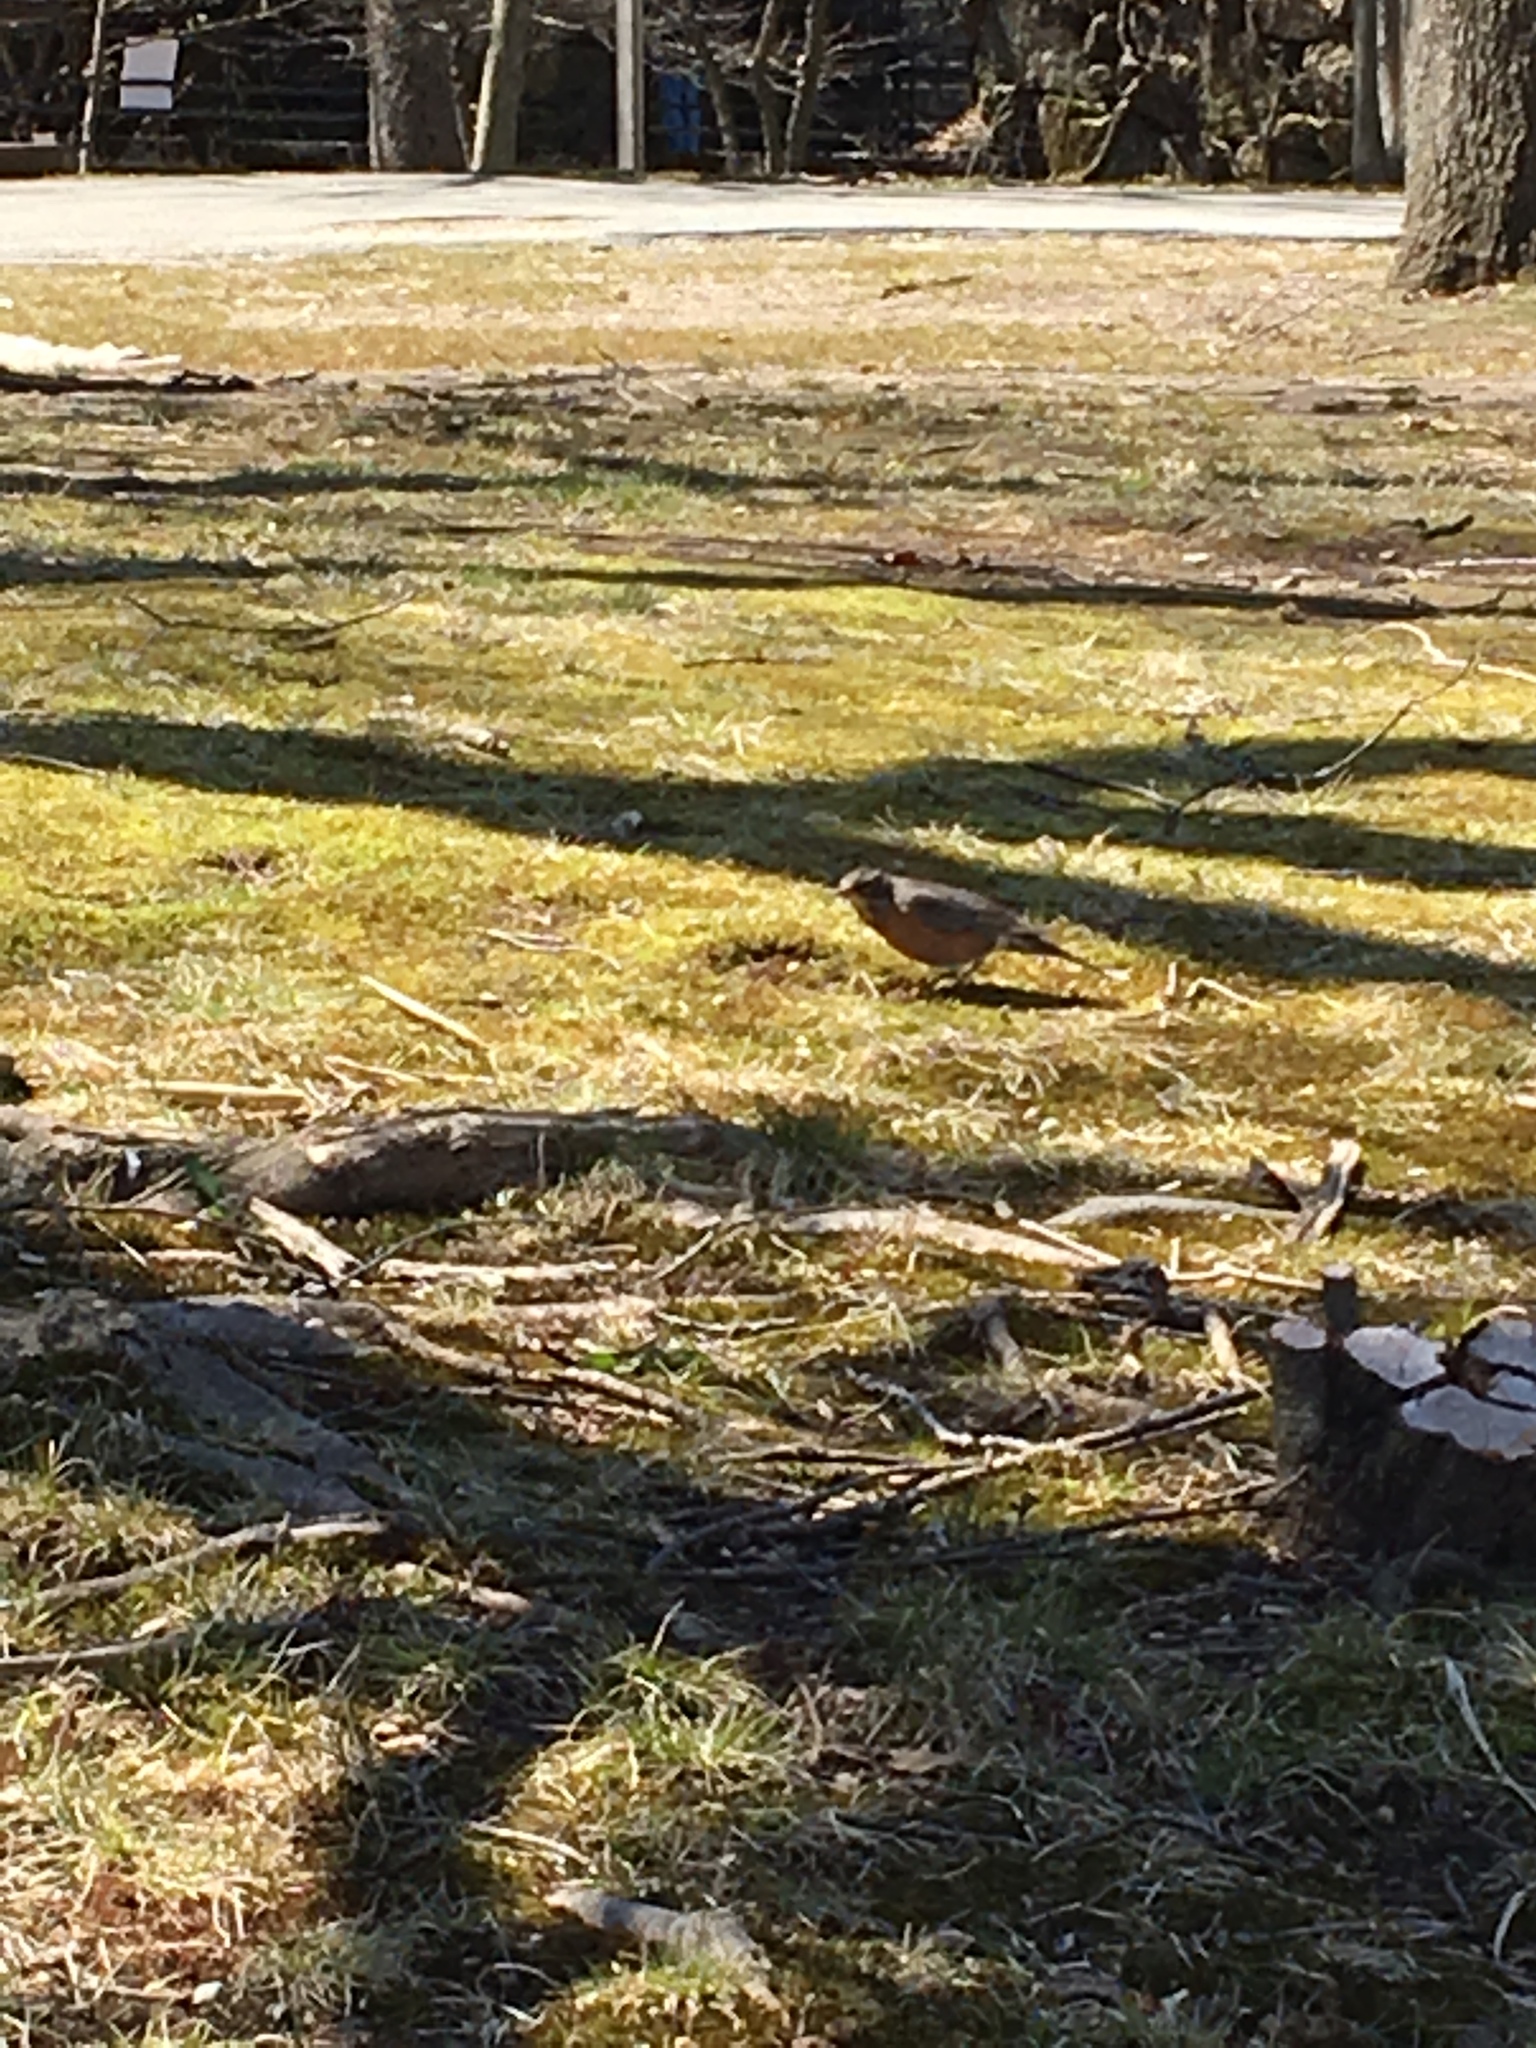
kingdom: Animalia
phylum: Chordata
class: Aves
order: Passeriformes
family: Turdidae
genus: Turdus
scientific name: Turdus migratorius
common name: American robin
